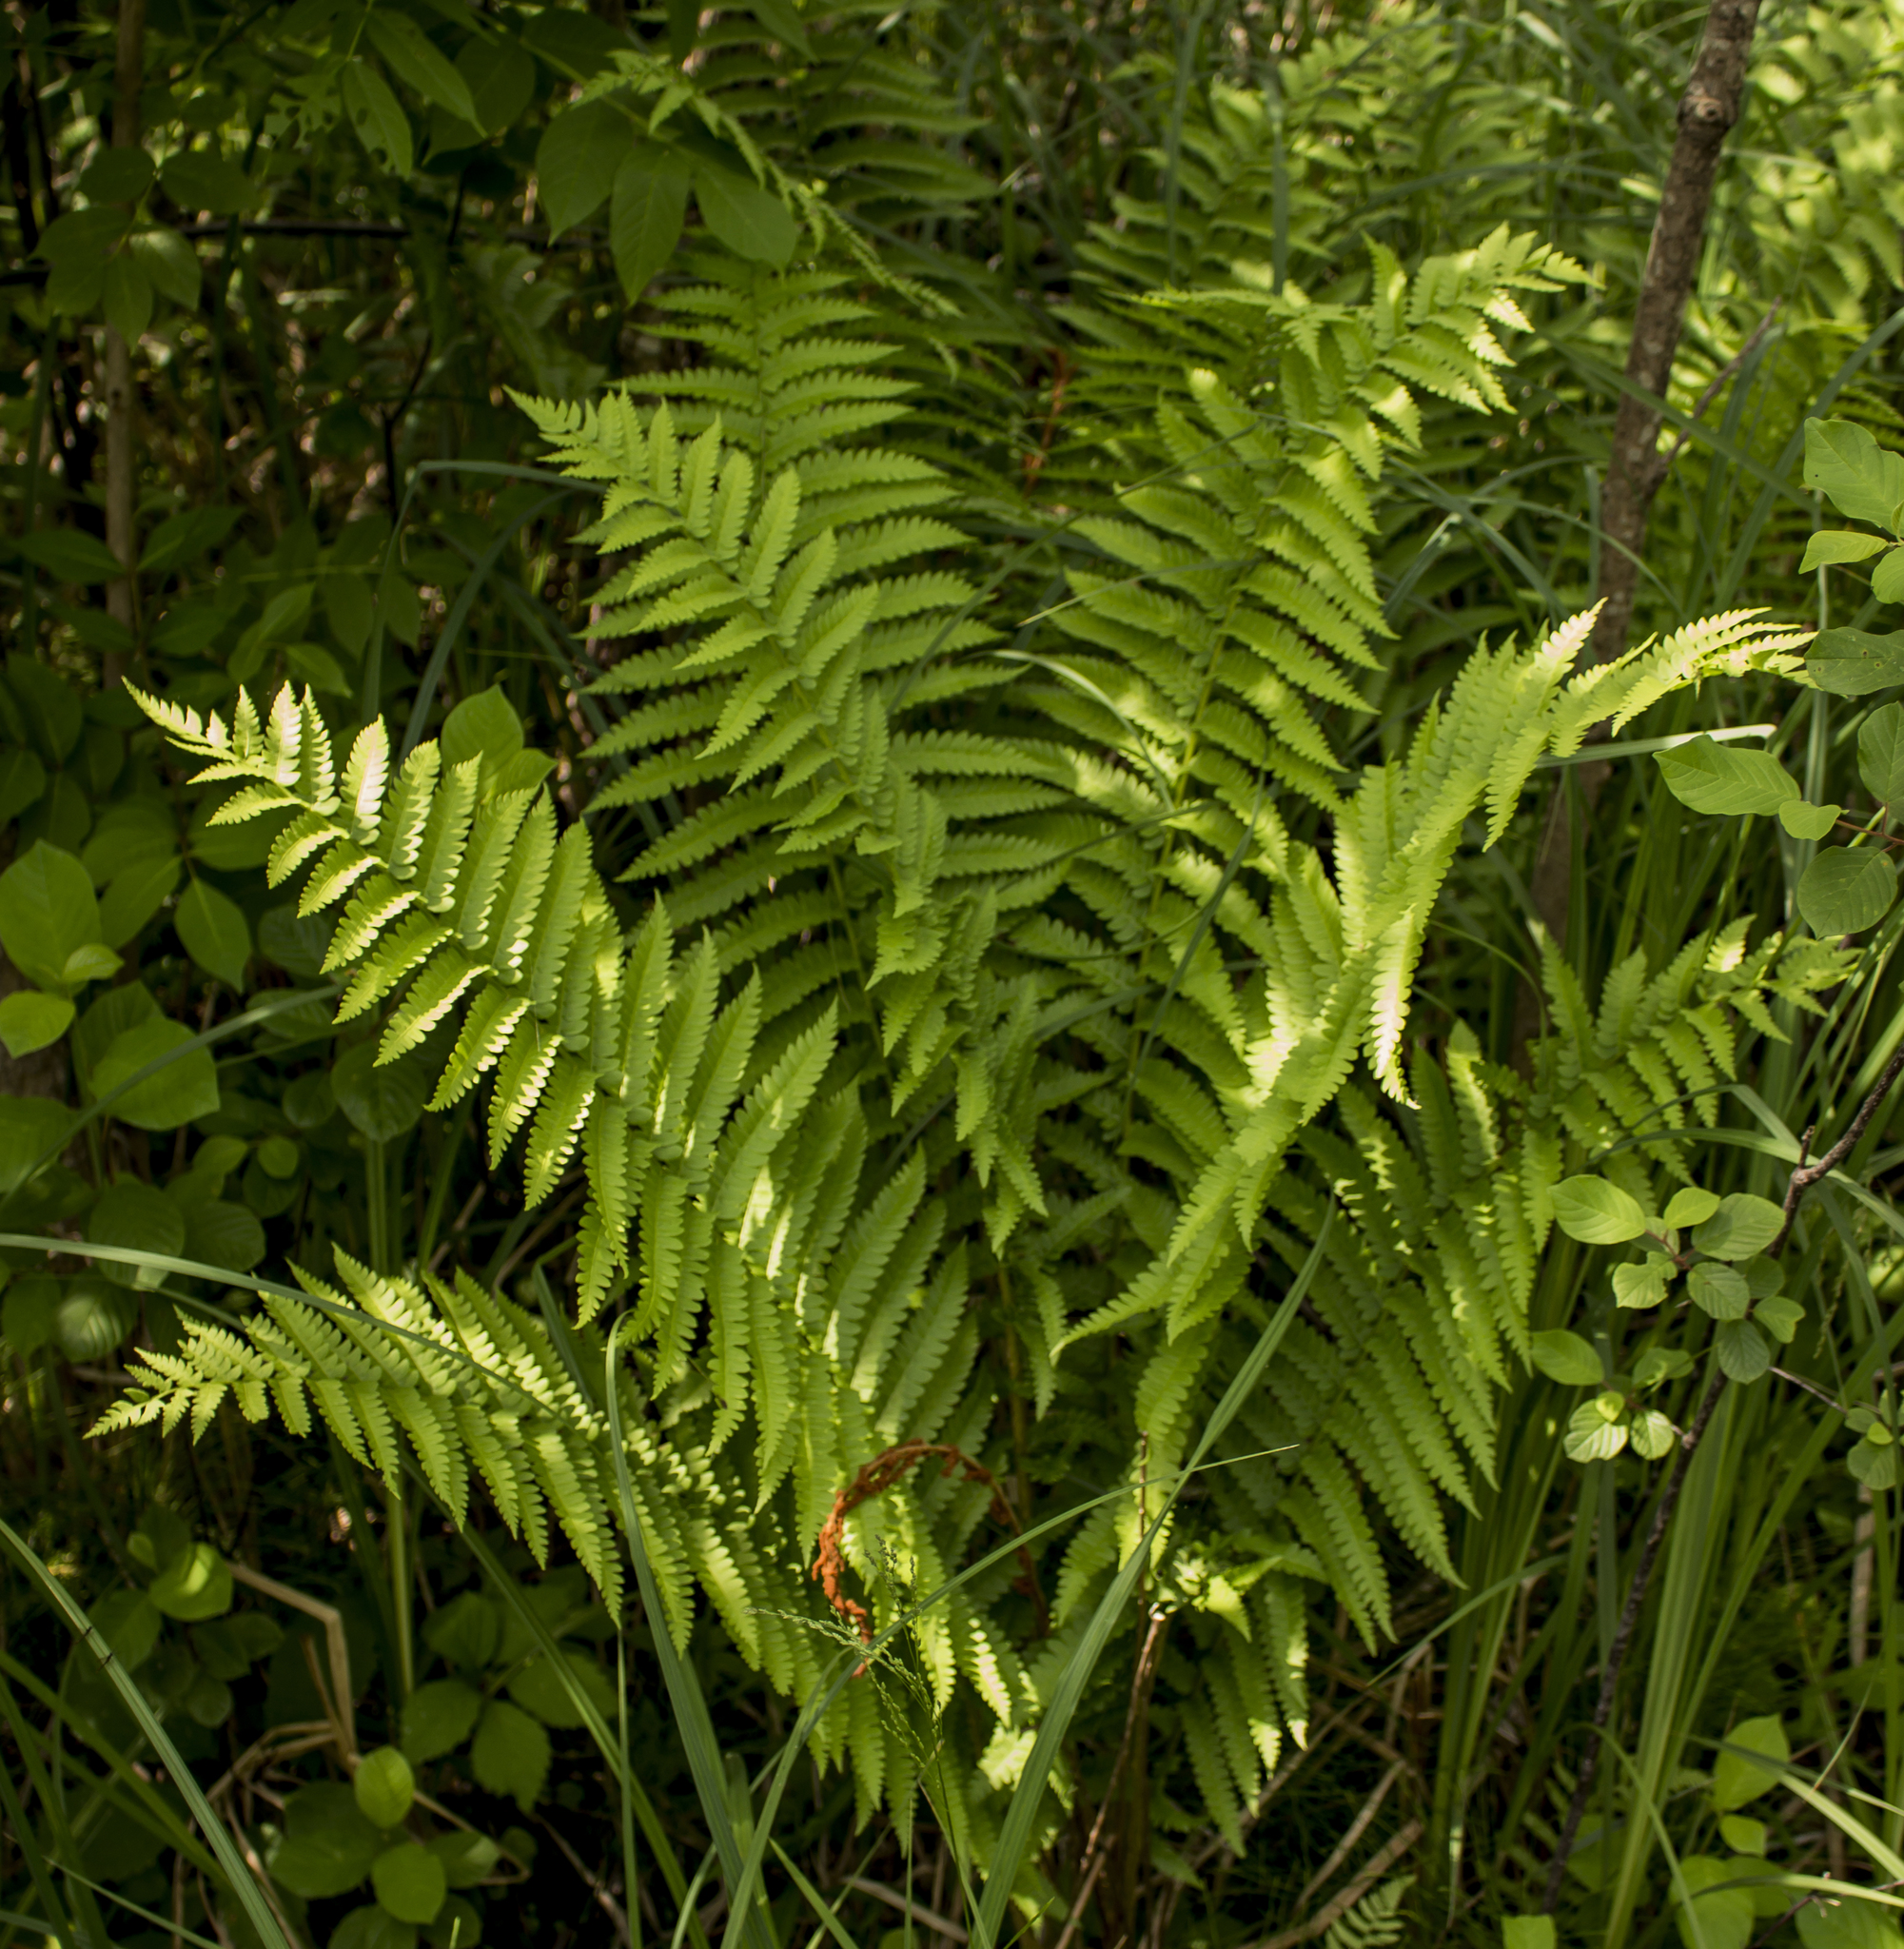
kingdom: Plantae
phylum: Tracheophyta
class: Polypodiopsida
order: Osmundales
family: Osmundaceae
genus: Osmundastrum
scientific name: Osmundastrum cinnamomeum
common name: Cinnamon fern
